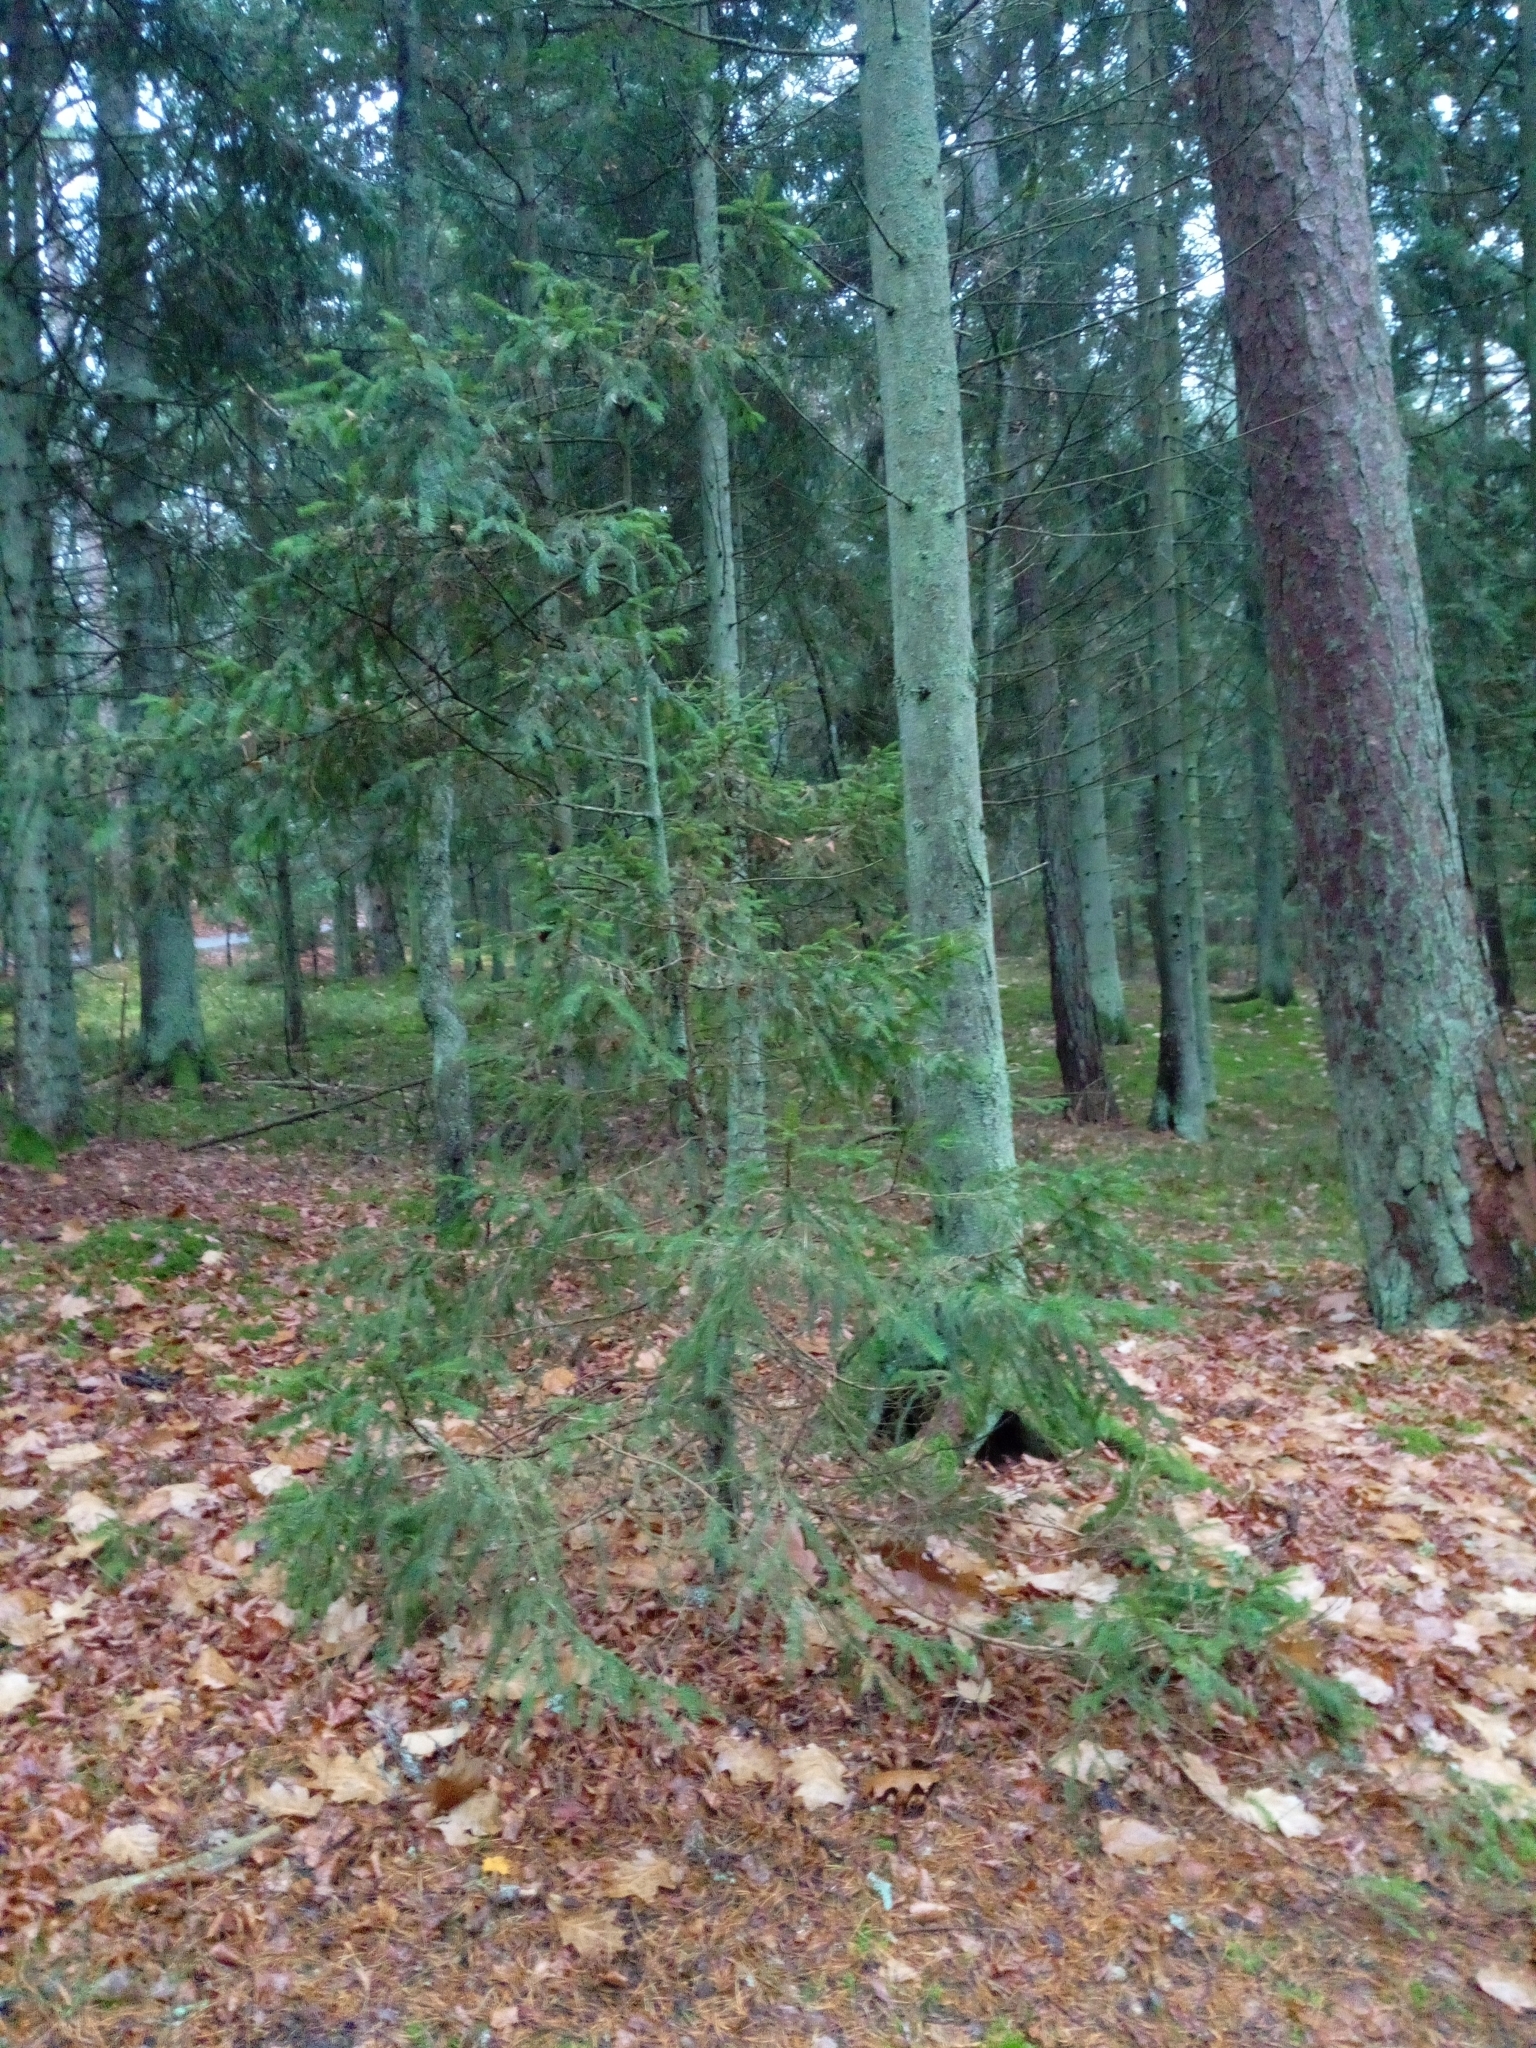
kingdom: Plantae
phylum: Tracheophyta
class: Pinopsida
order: Pinales
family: Pinaceae
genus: Picea
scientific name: Picea abies
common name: Norway spruce
